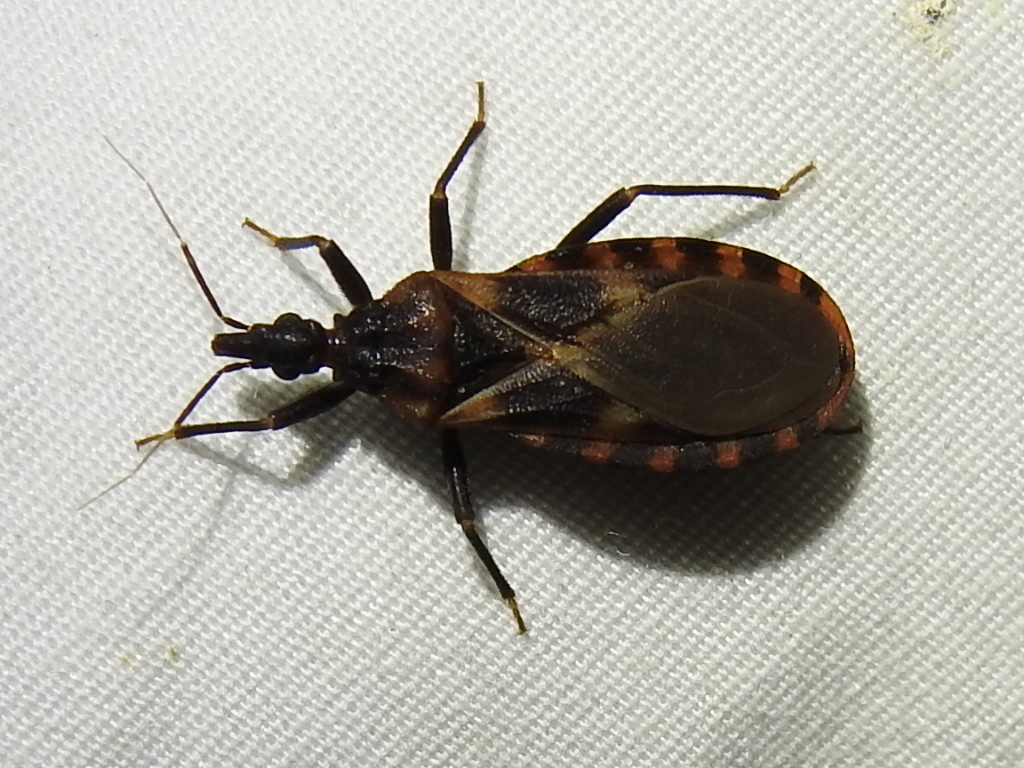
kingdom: Animalia
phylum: Arthropoda
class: Insecta
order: Hemiptera
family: Reduviidae
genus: Triatoma
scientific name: Triatoma lecticularia
